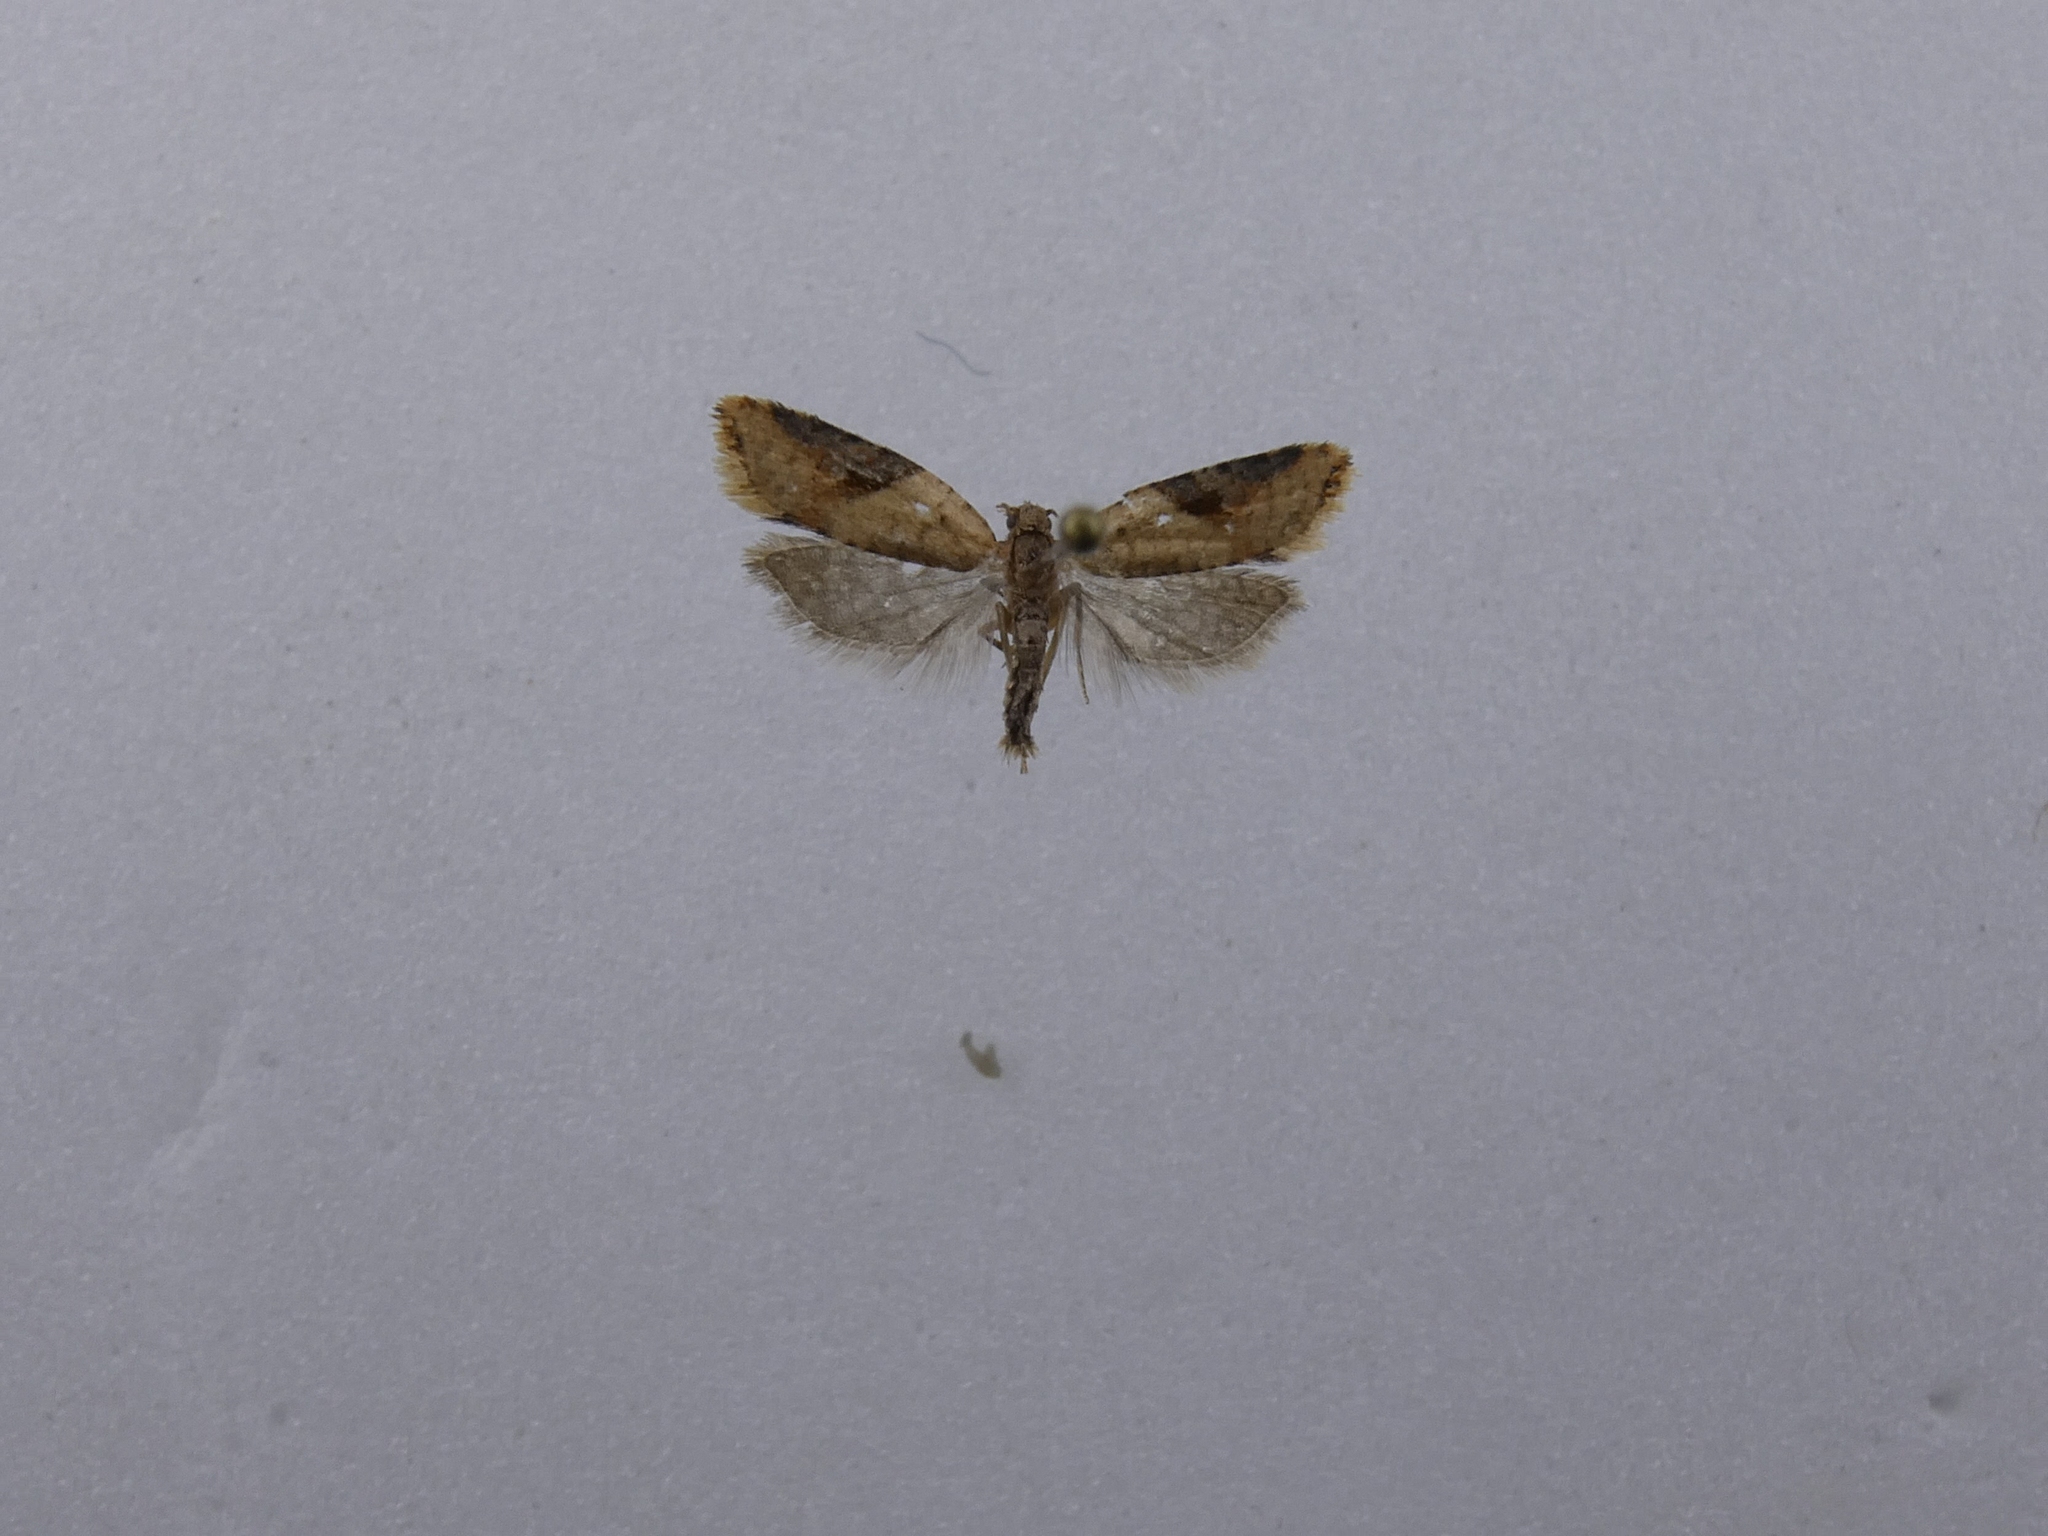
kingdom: Animalia
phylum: Arthropoda
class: Insecta
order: Lepidoptera
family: Tortricidae
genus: Capua
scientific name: Capua semiferana
